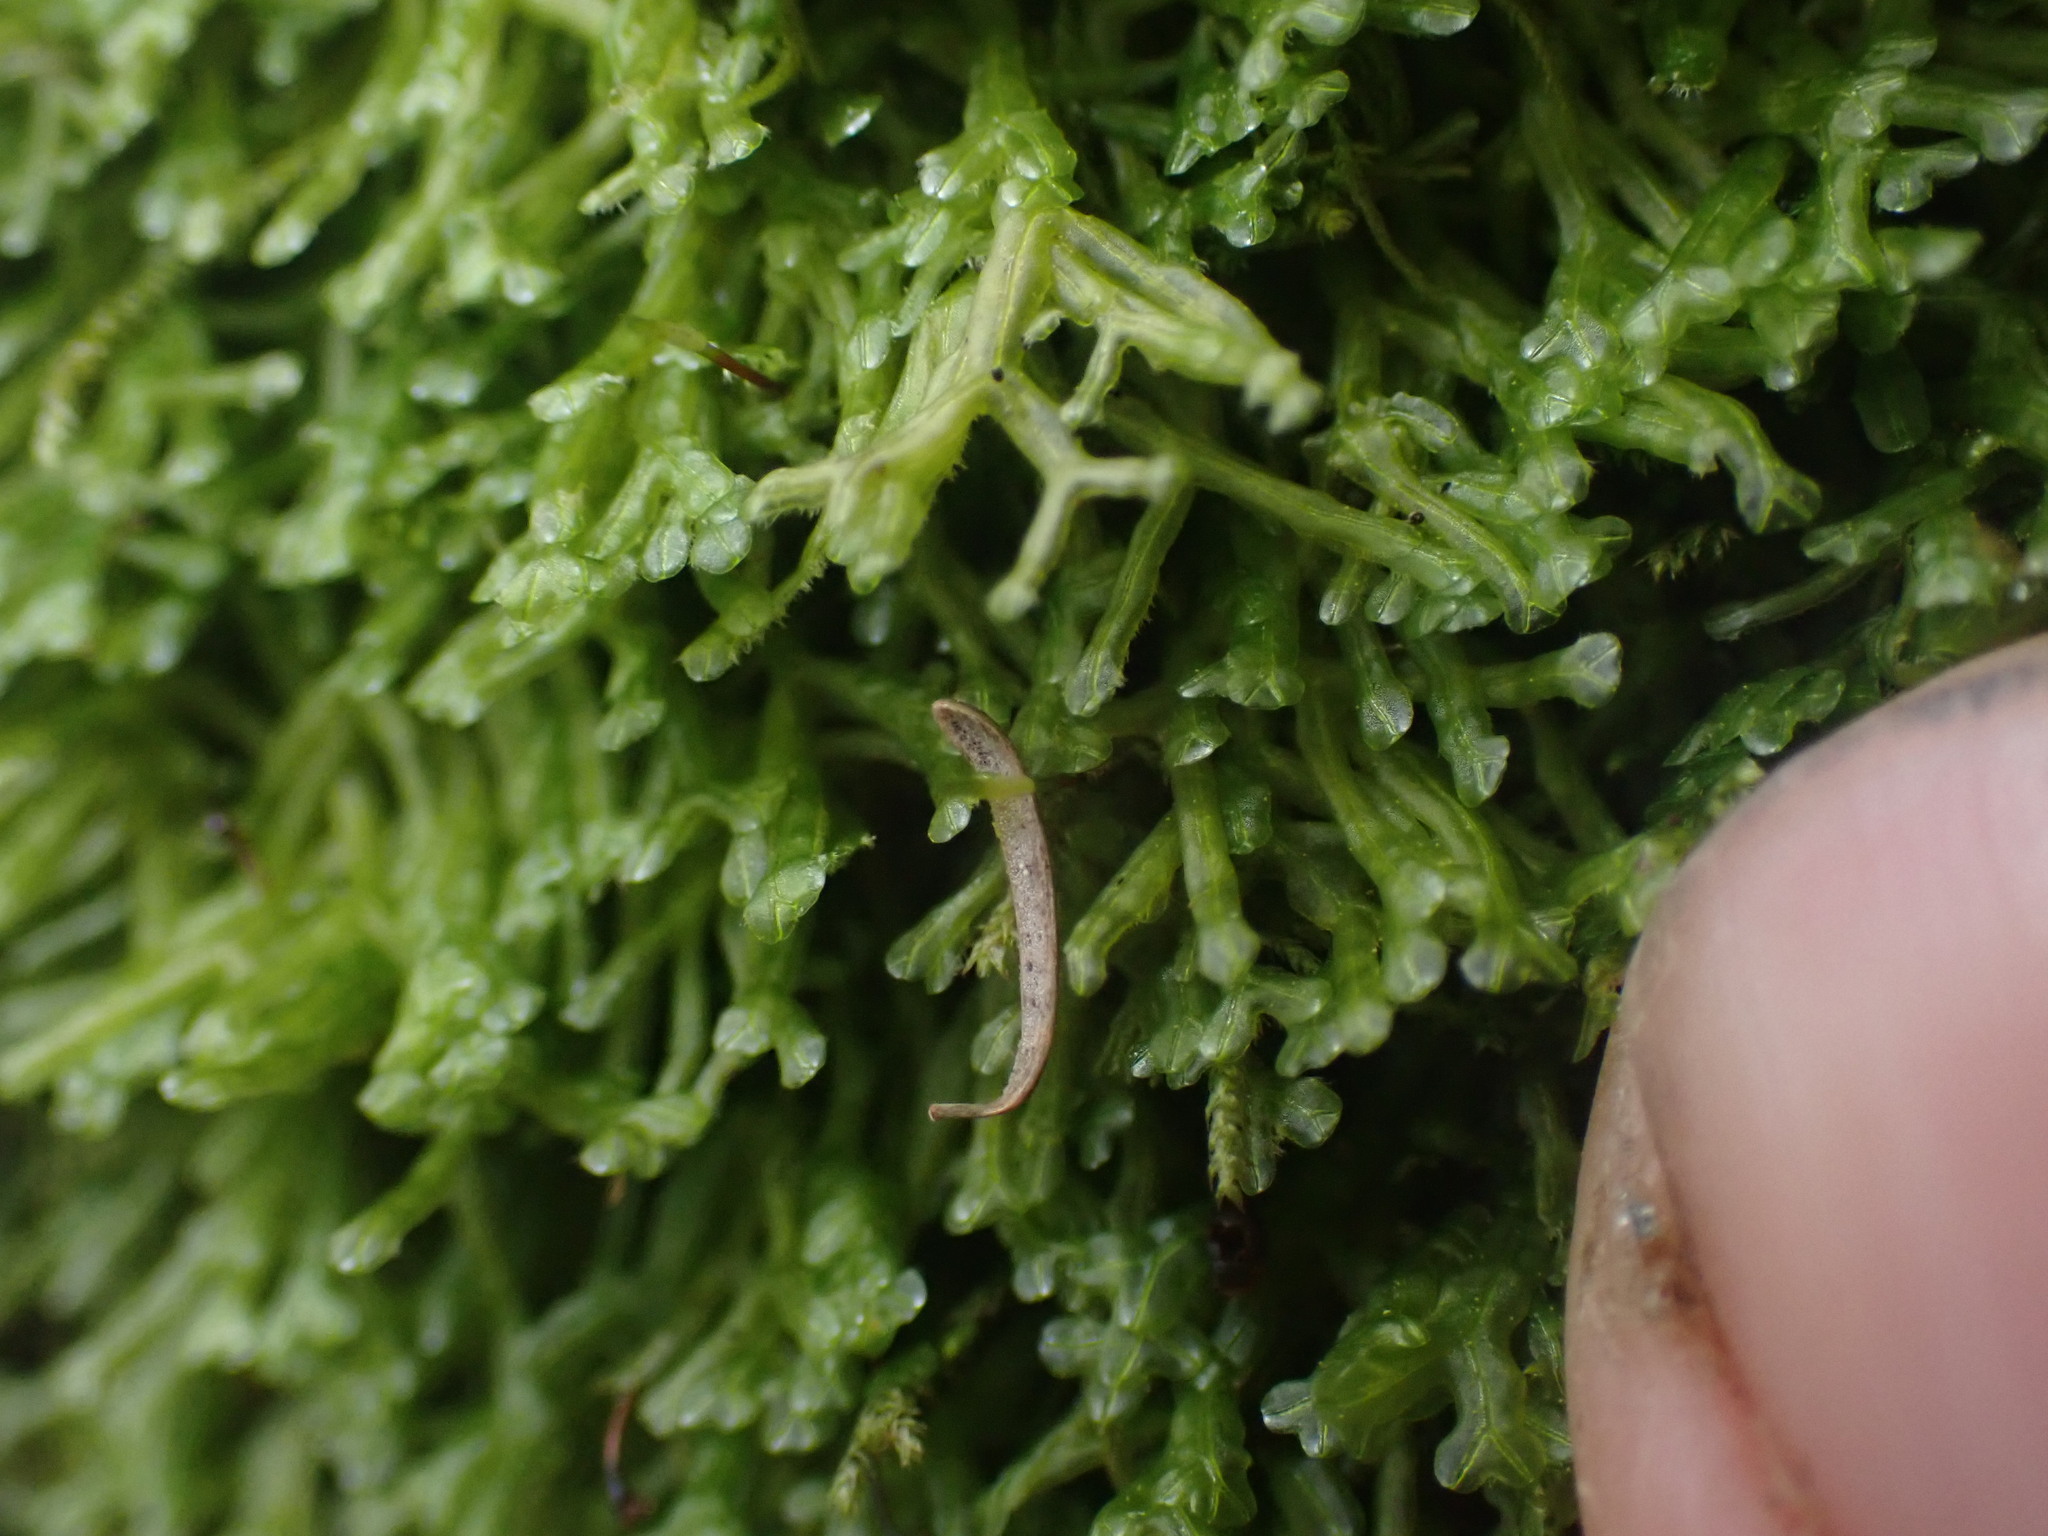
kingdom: Plantae
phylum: Marchantiophyta
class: Jungermanniopsida
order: Metzgeriales
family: Metzgeriaceae
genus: Metzgeria
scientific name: Metzgeria conjugata
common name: Rock veilwort
